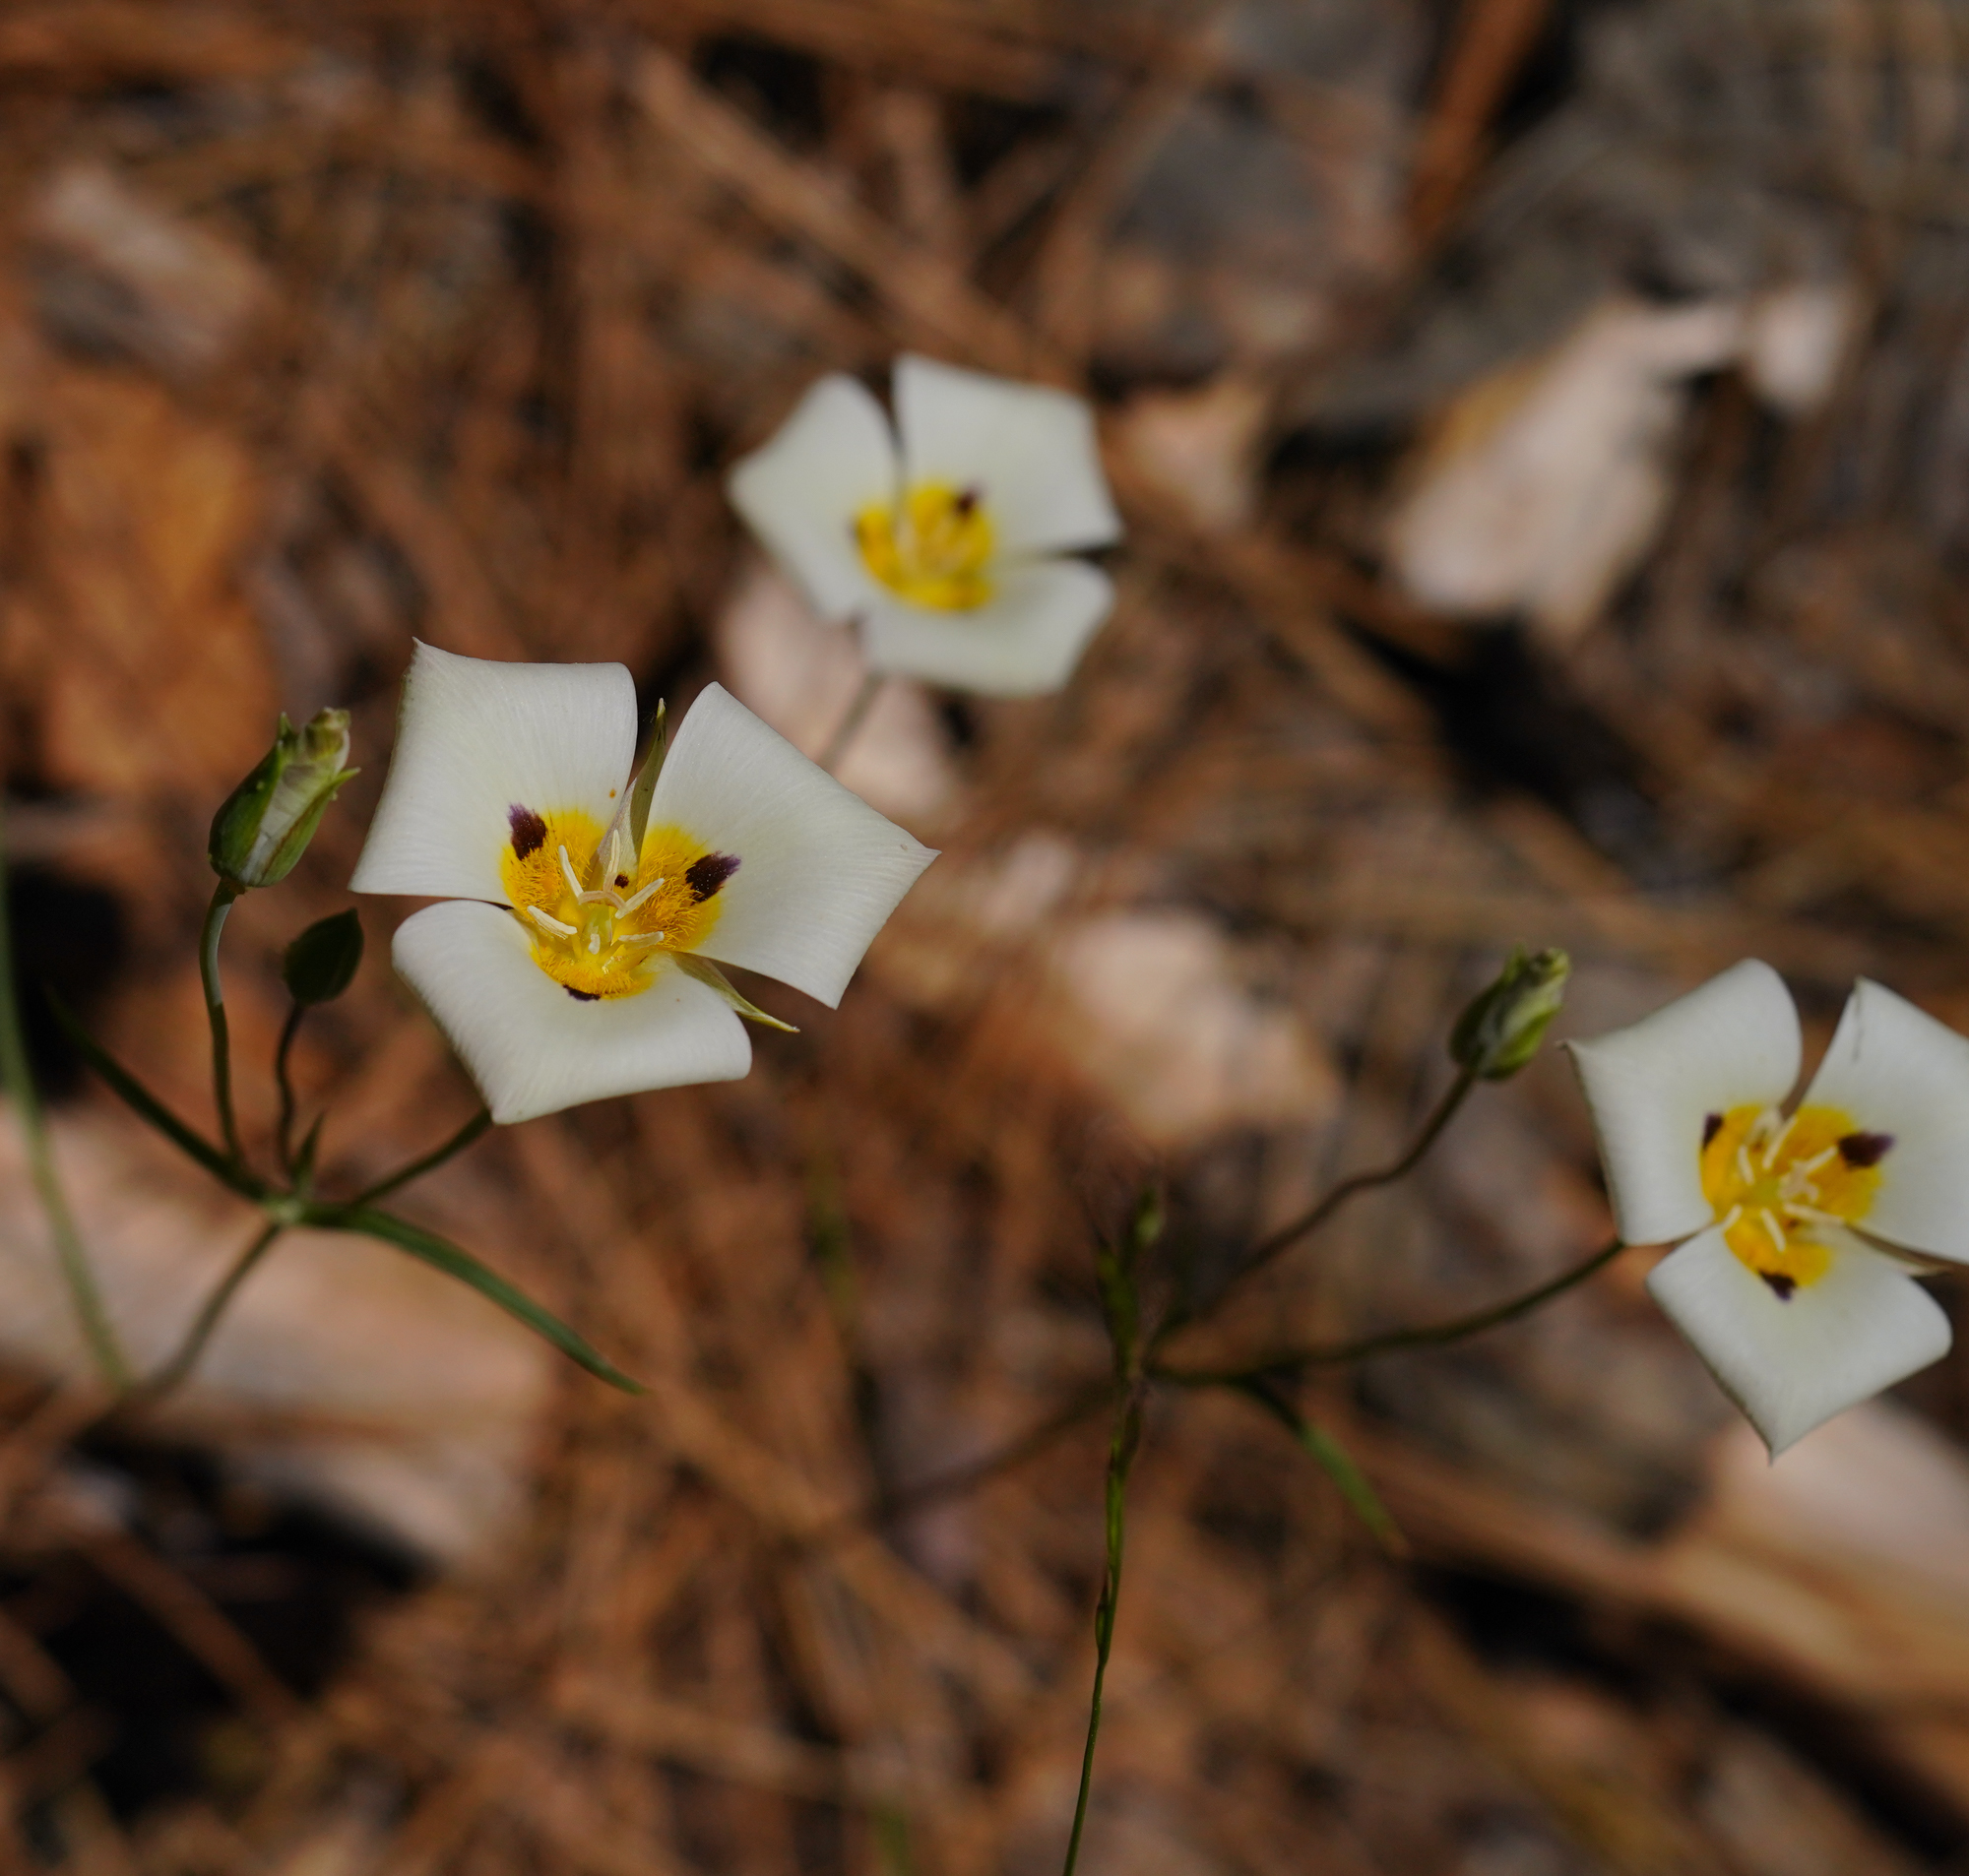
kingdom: Plantae
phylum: Tracheophyta
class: Liliopsida
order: Liliales
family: Liliaceae
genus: Calochortus
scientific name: Calochortus leichtlinii
